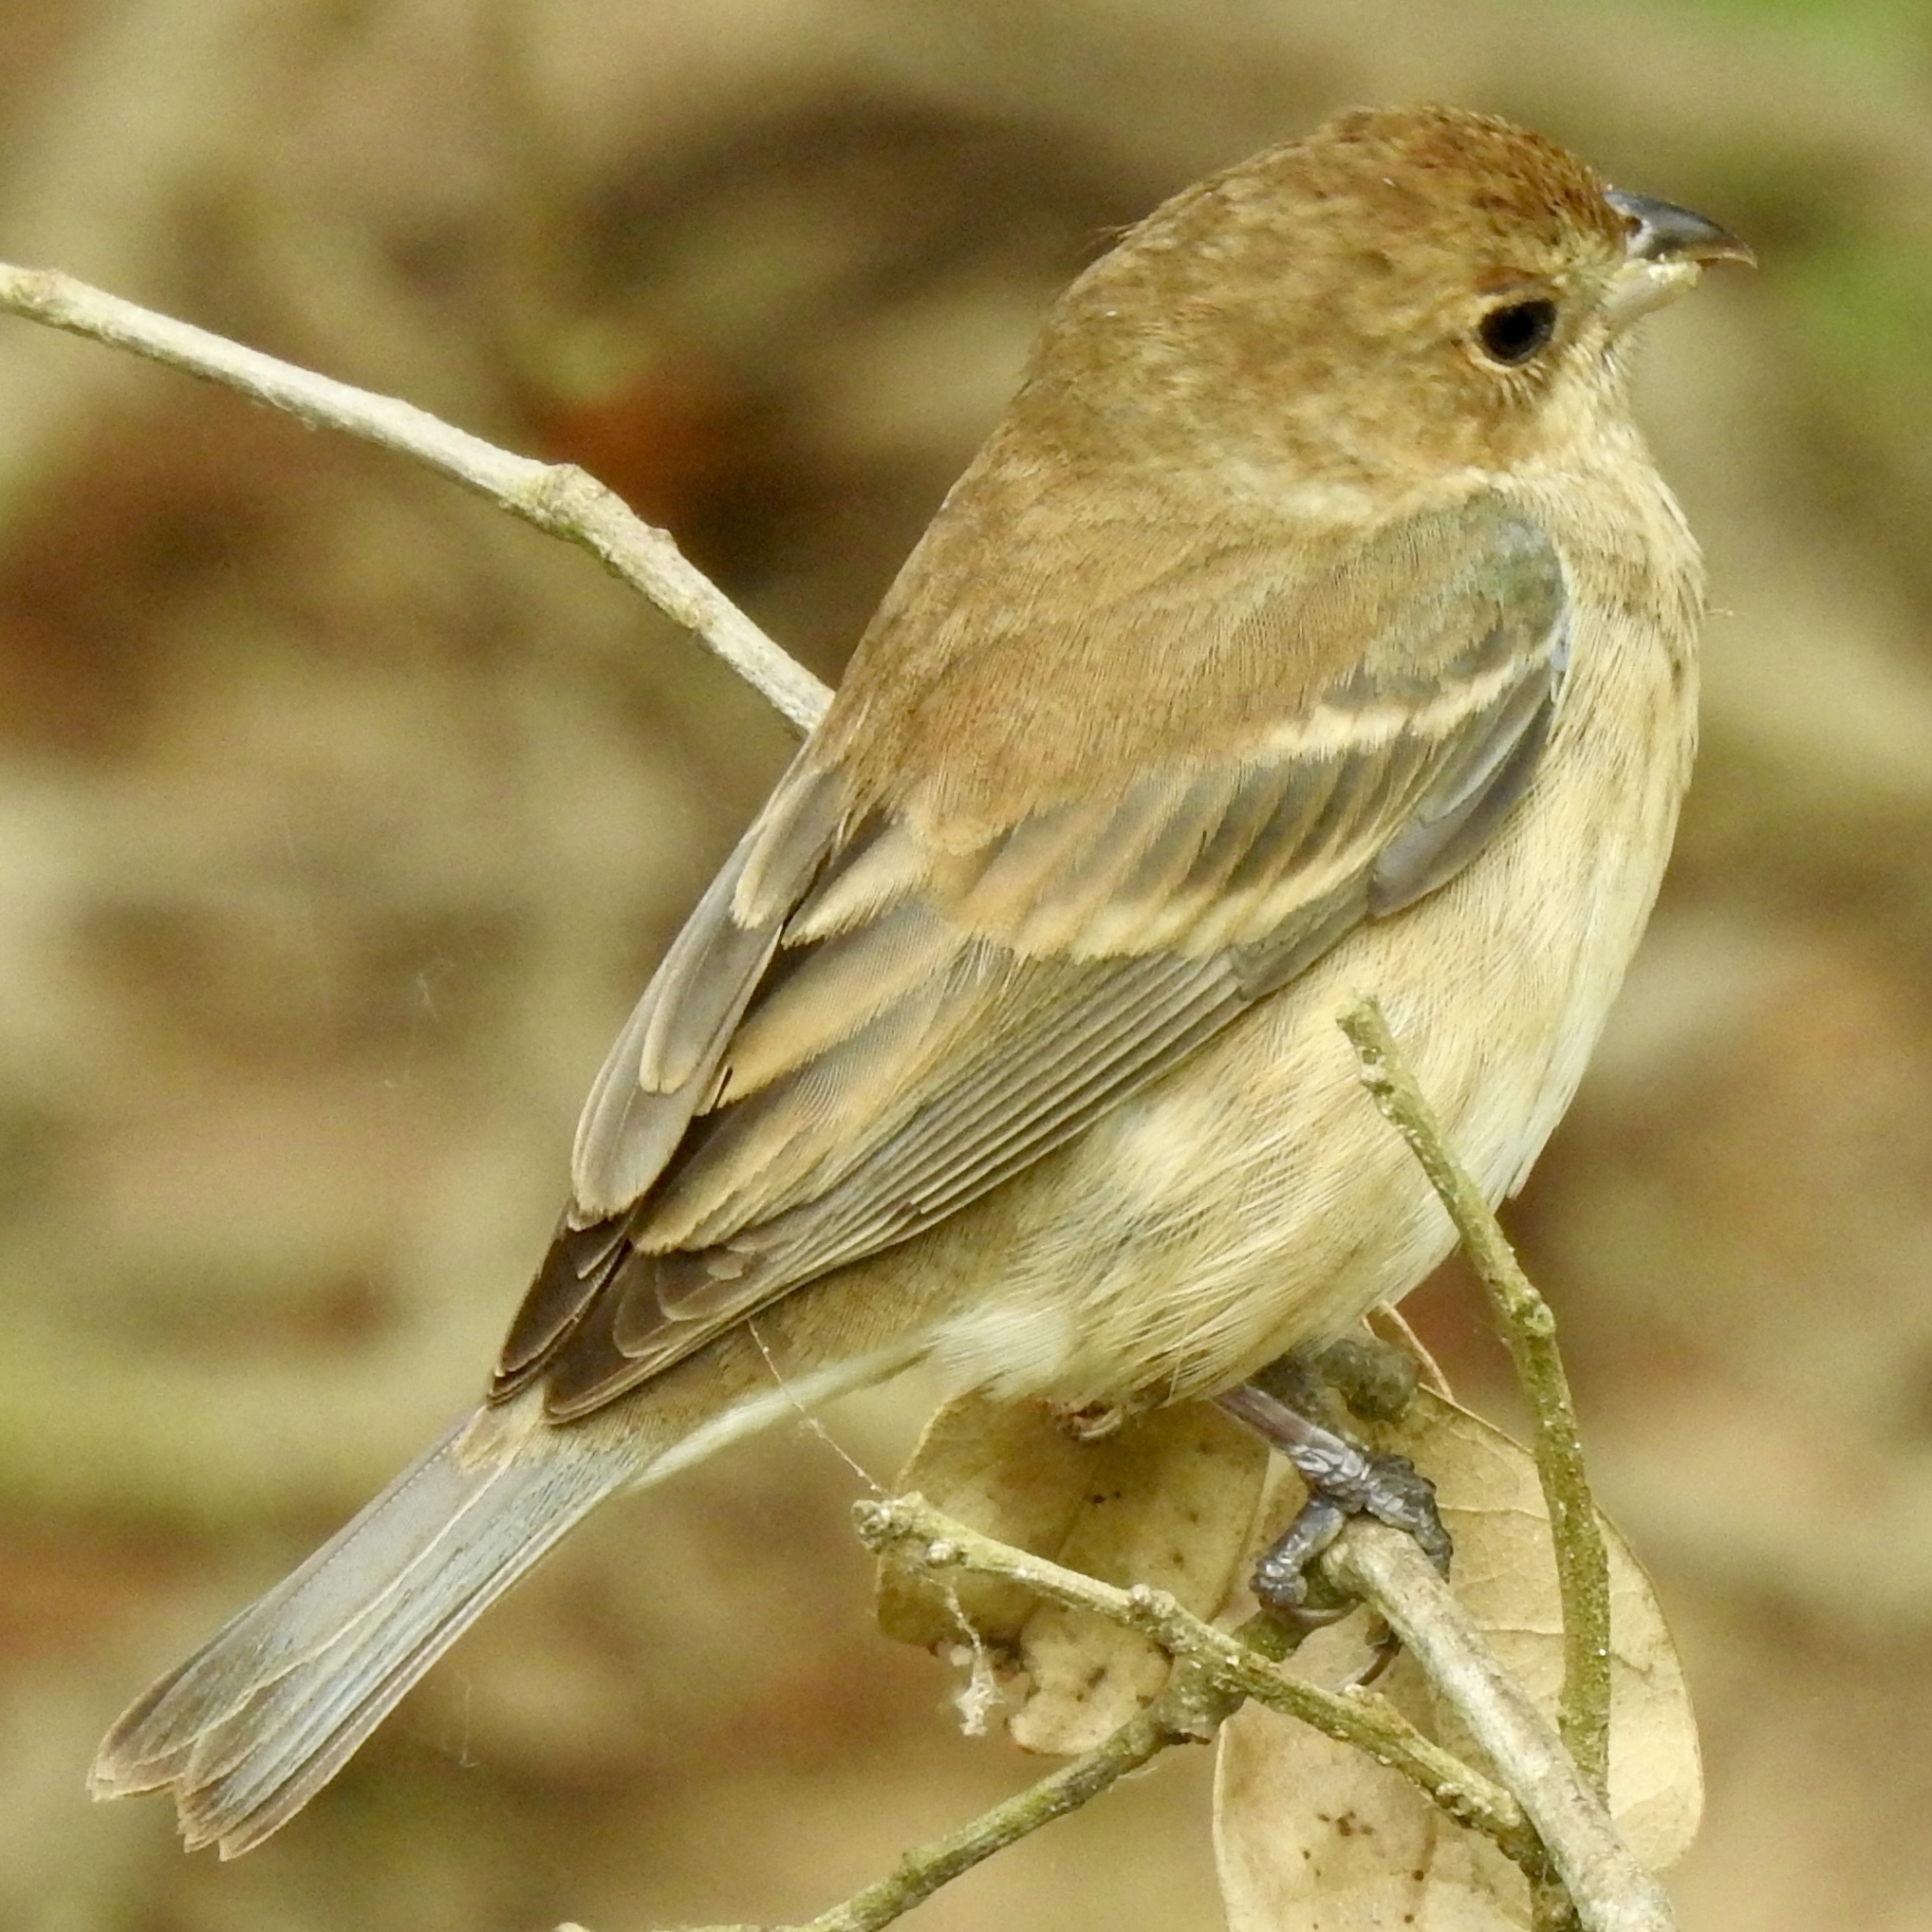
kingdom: Animalia
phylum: Chordata
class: Aves
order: Passeriformes
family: Cardinalidae
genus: Passerina
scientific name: Passerina cyanea
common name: Indigo bunting
